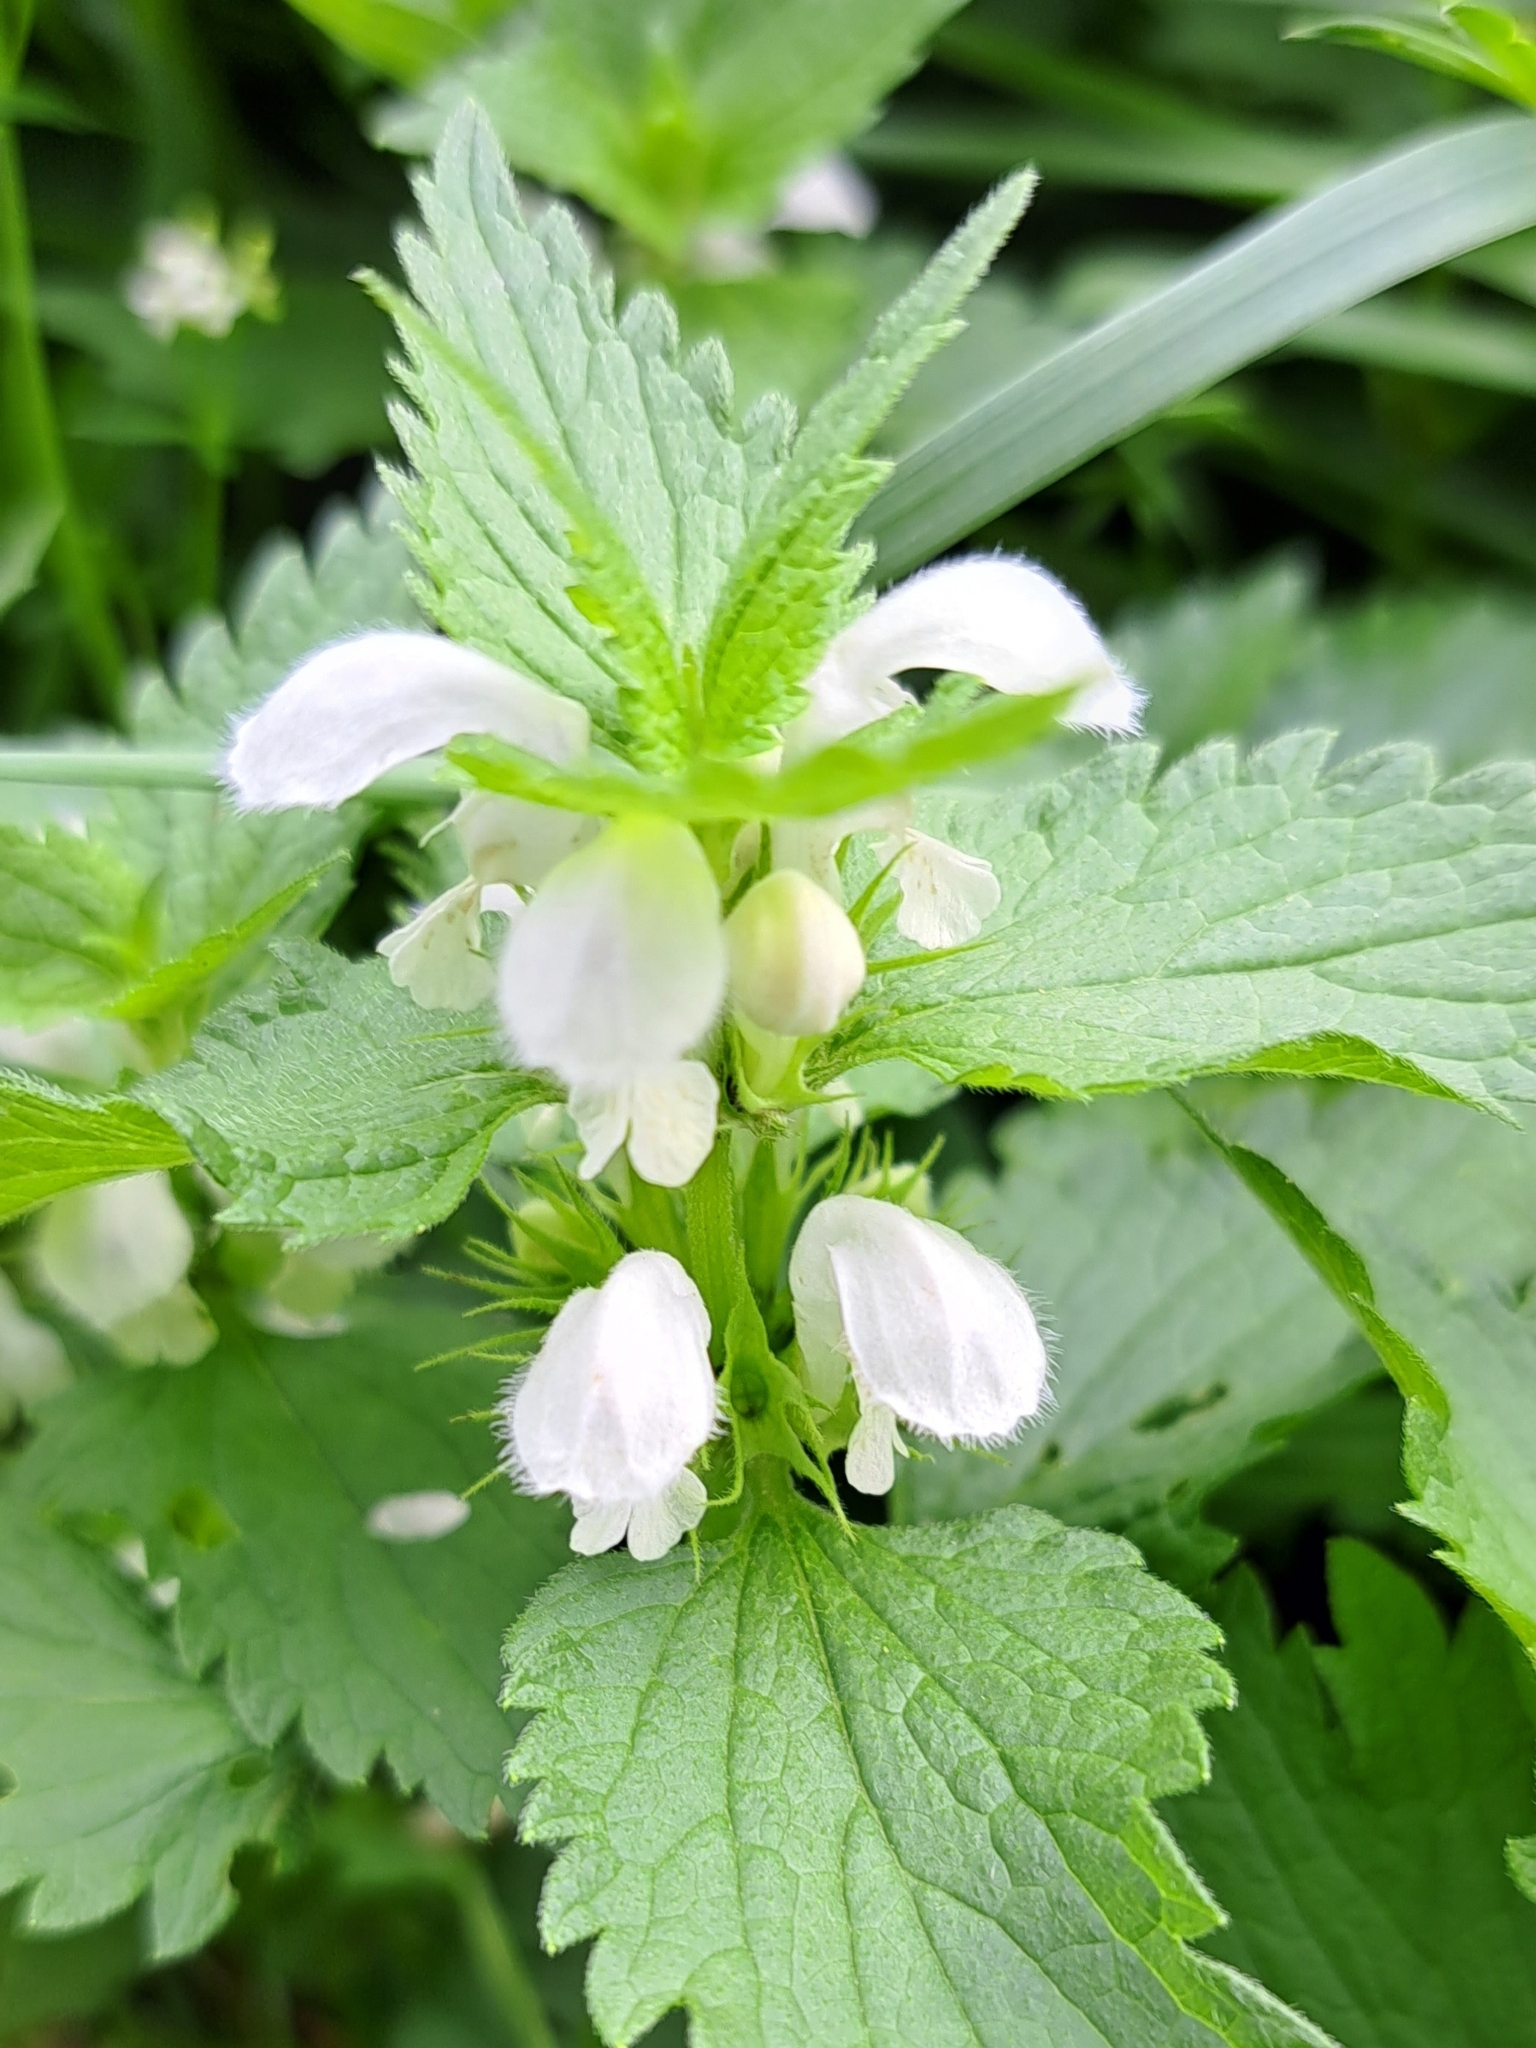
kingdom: Plantae
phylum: Tracheophyta
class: Magnoliopsida
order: Lamiales
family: Lamiaceae
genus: Lamium
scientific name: Lamium album
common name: White dead-nettle
